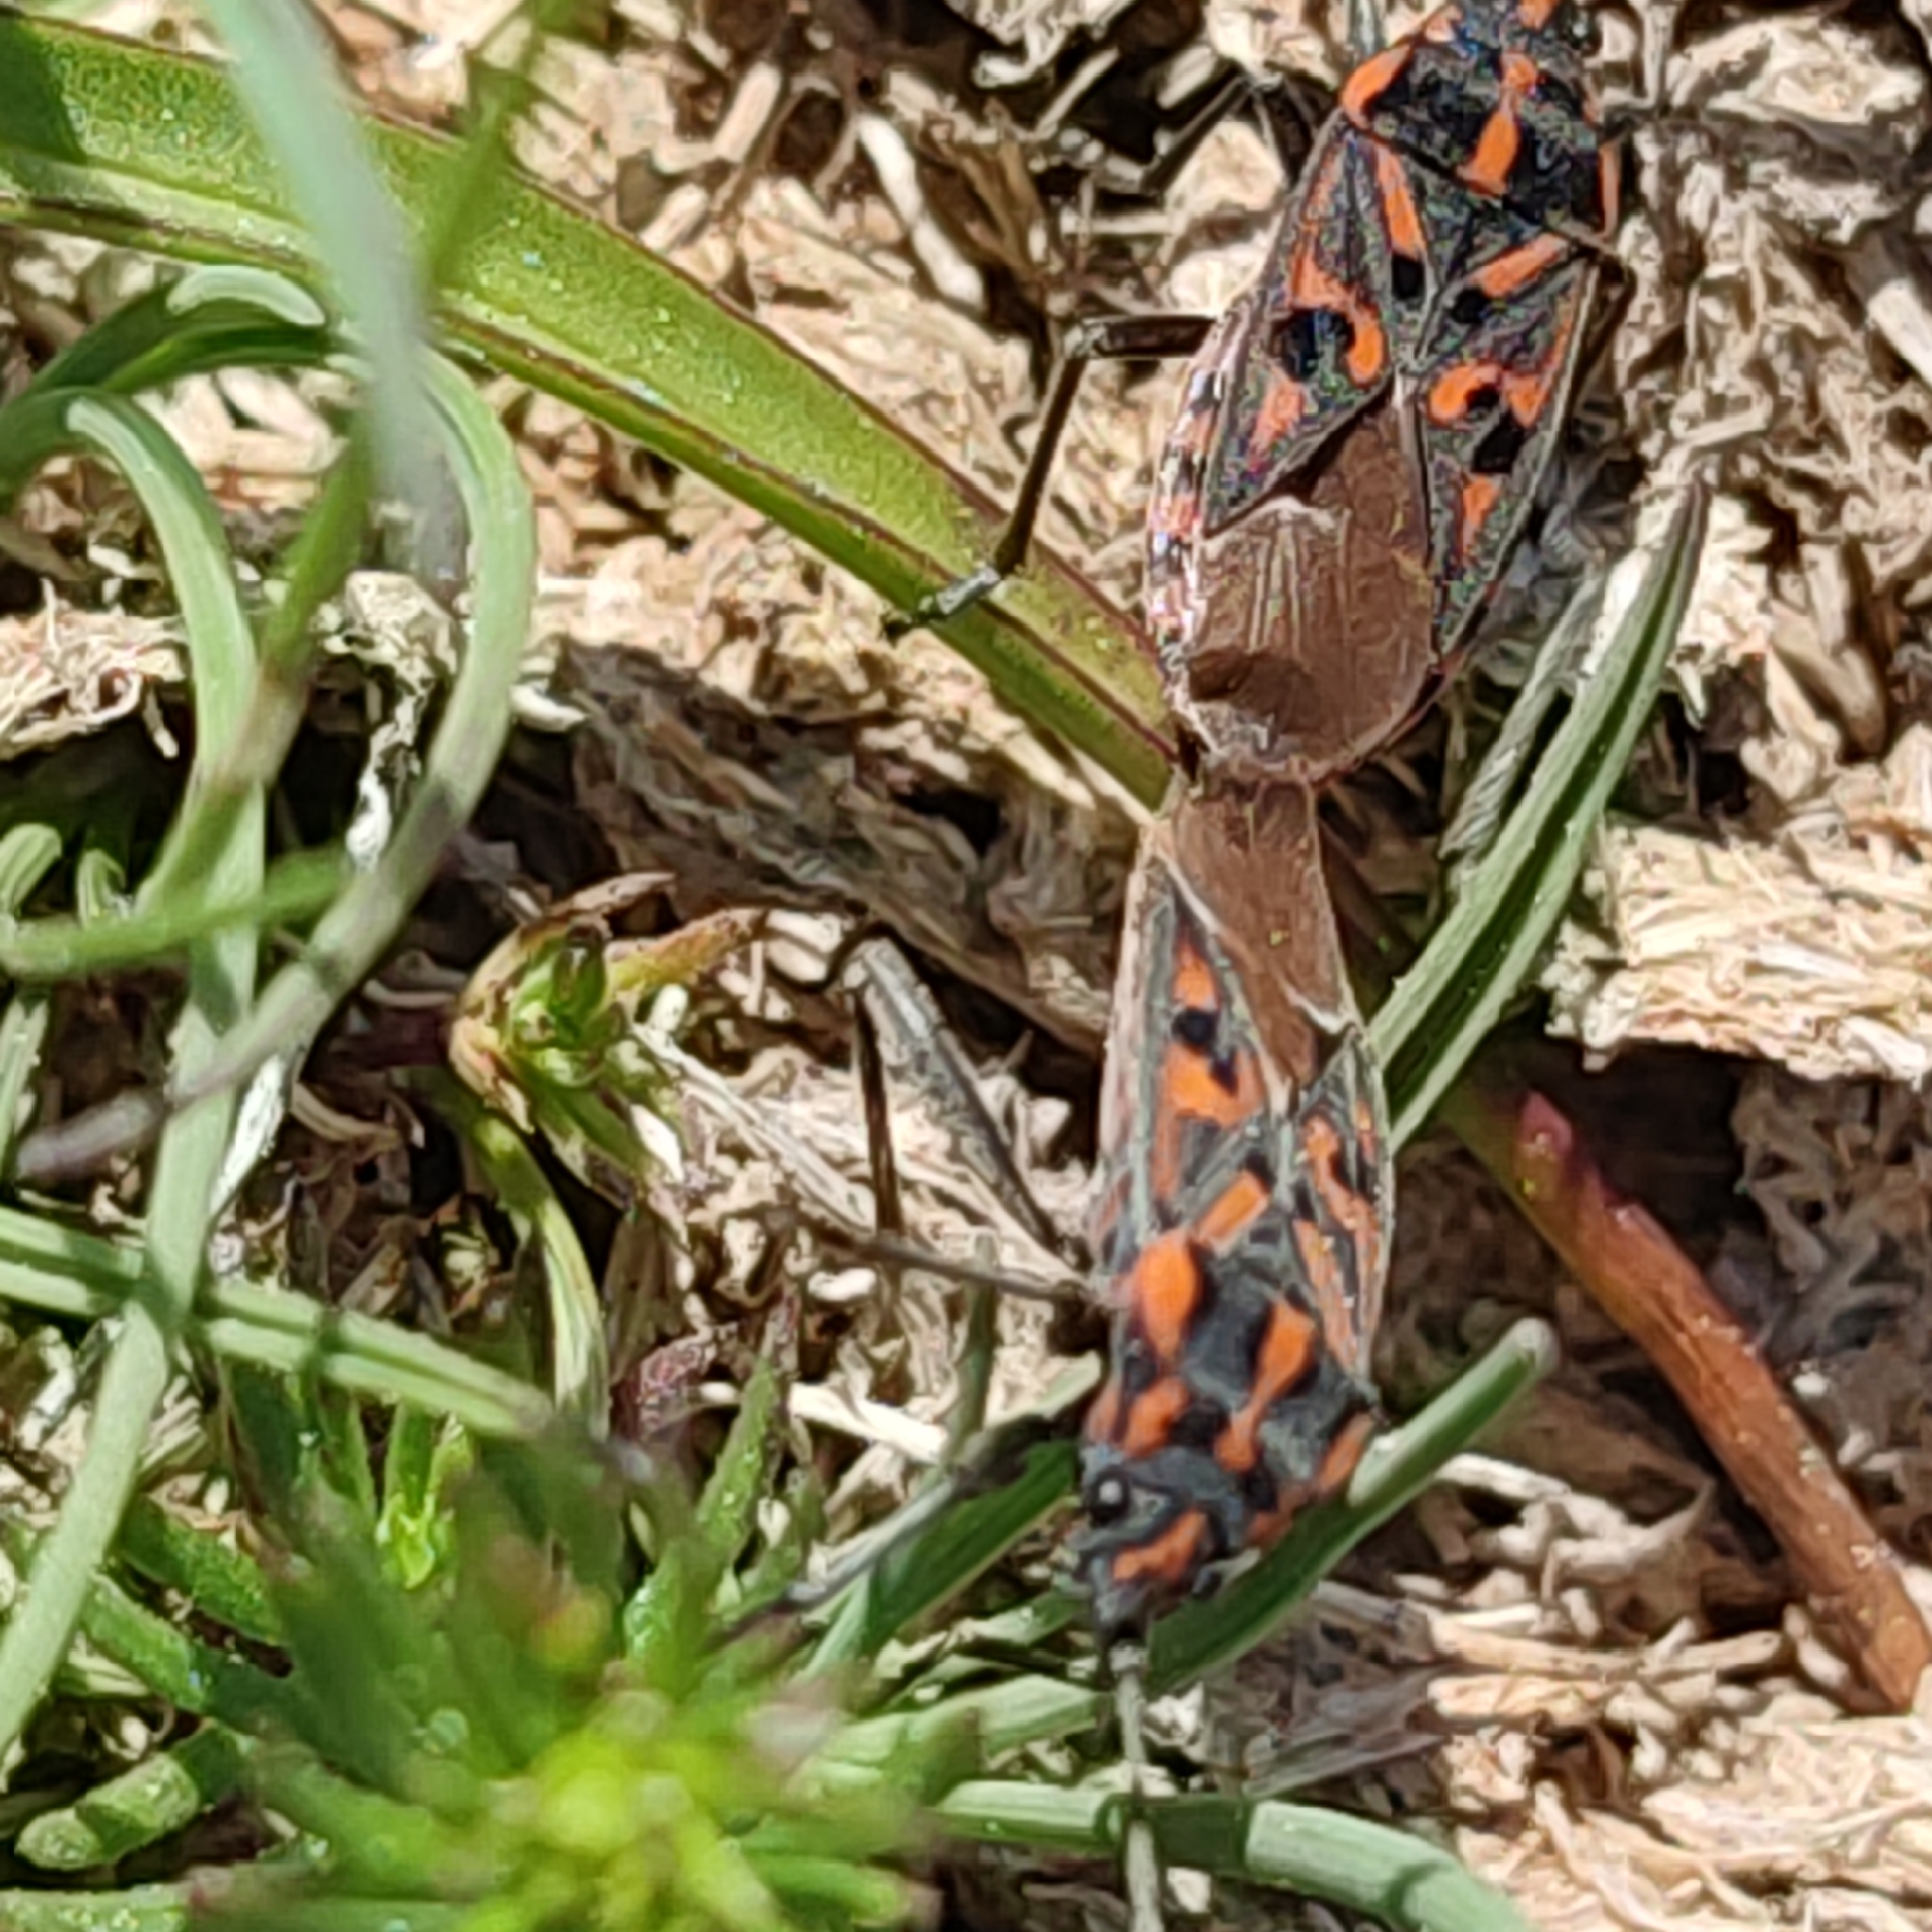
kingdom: Animalia
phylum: Arthropoda
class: Insecta
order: Hemiptera
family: Lygaeidae
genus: Spilostethus
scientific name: Spilostethus saxatilis
